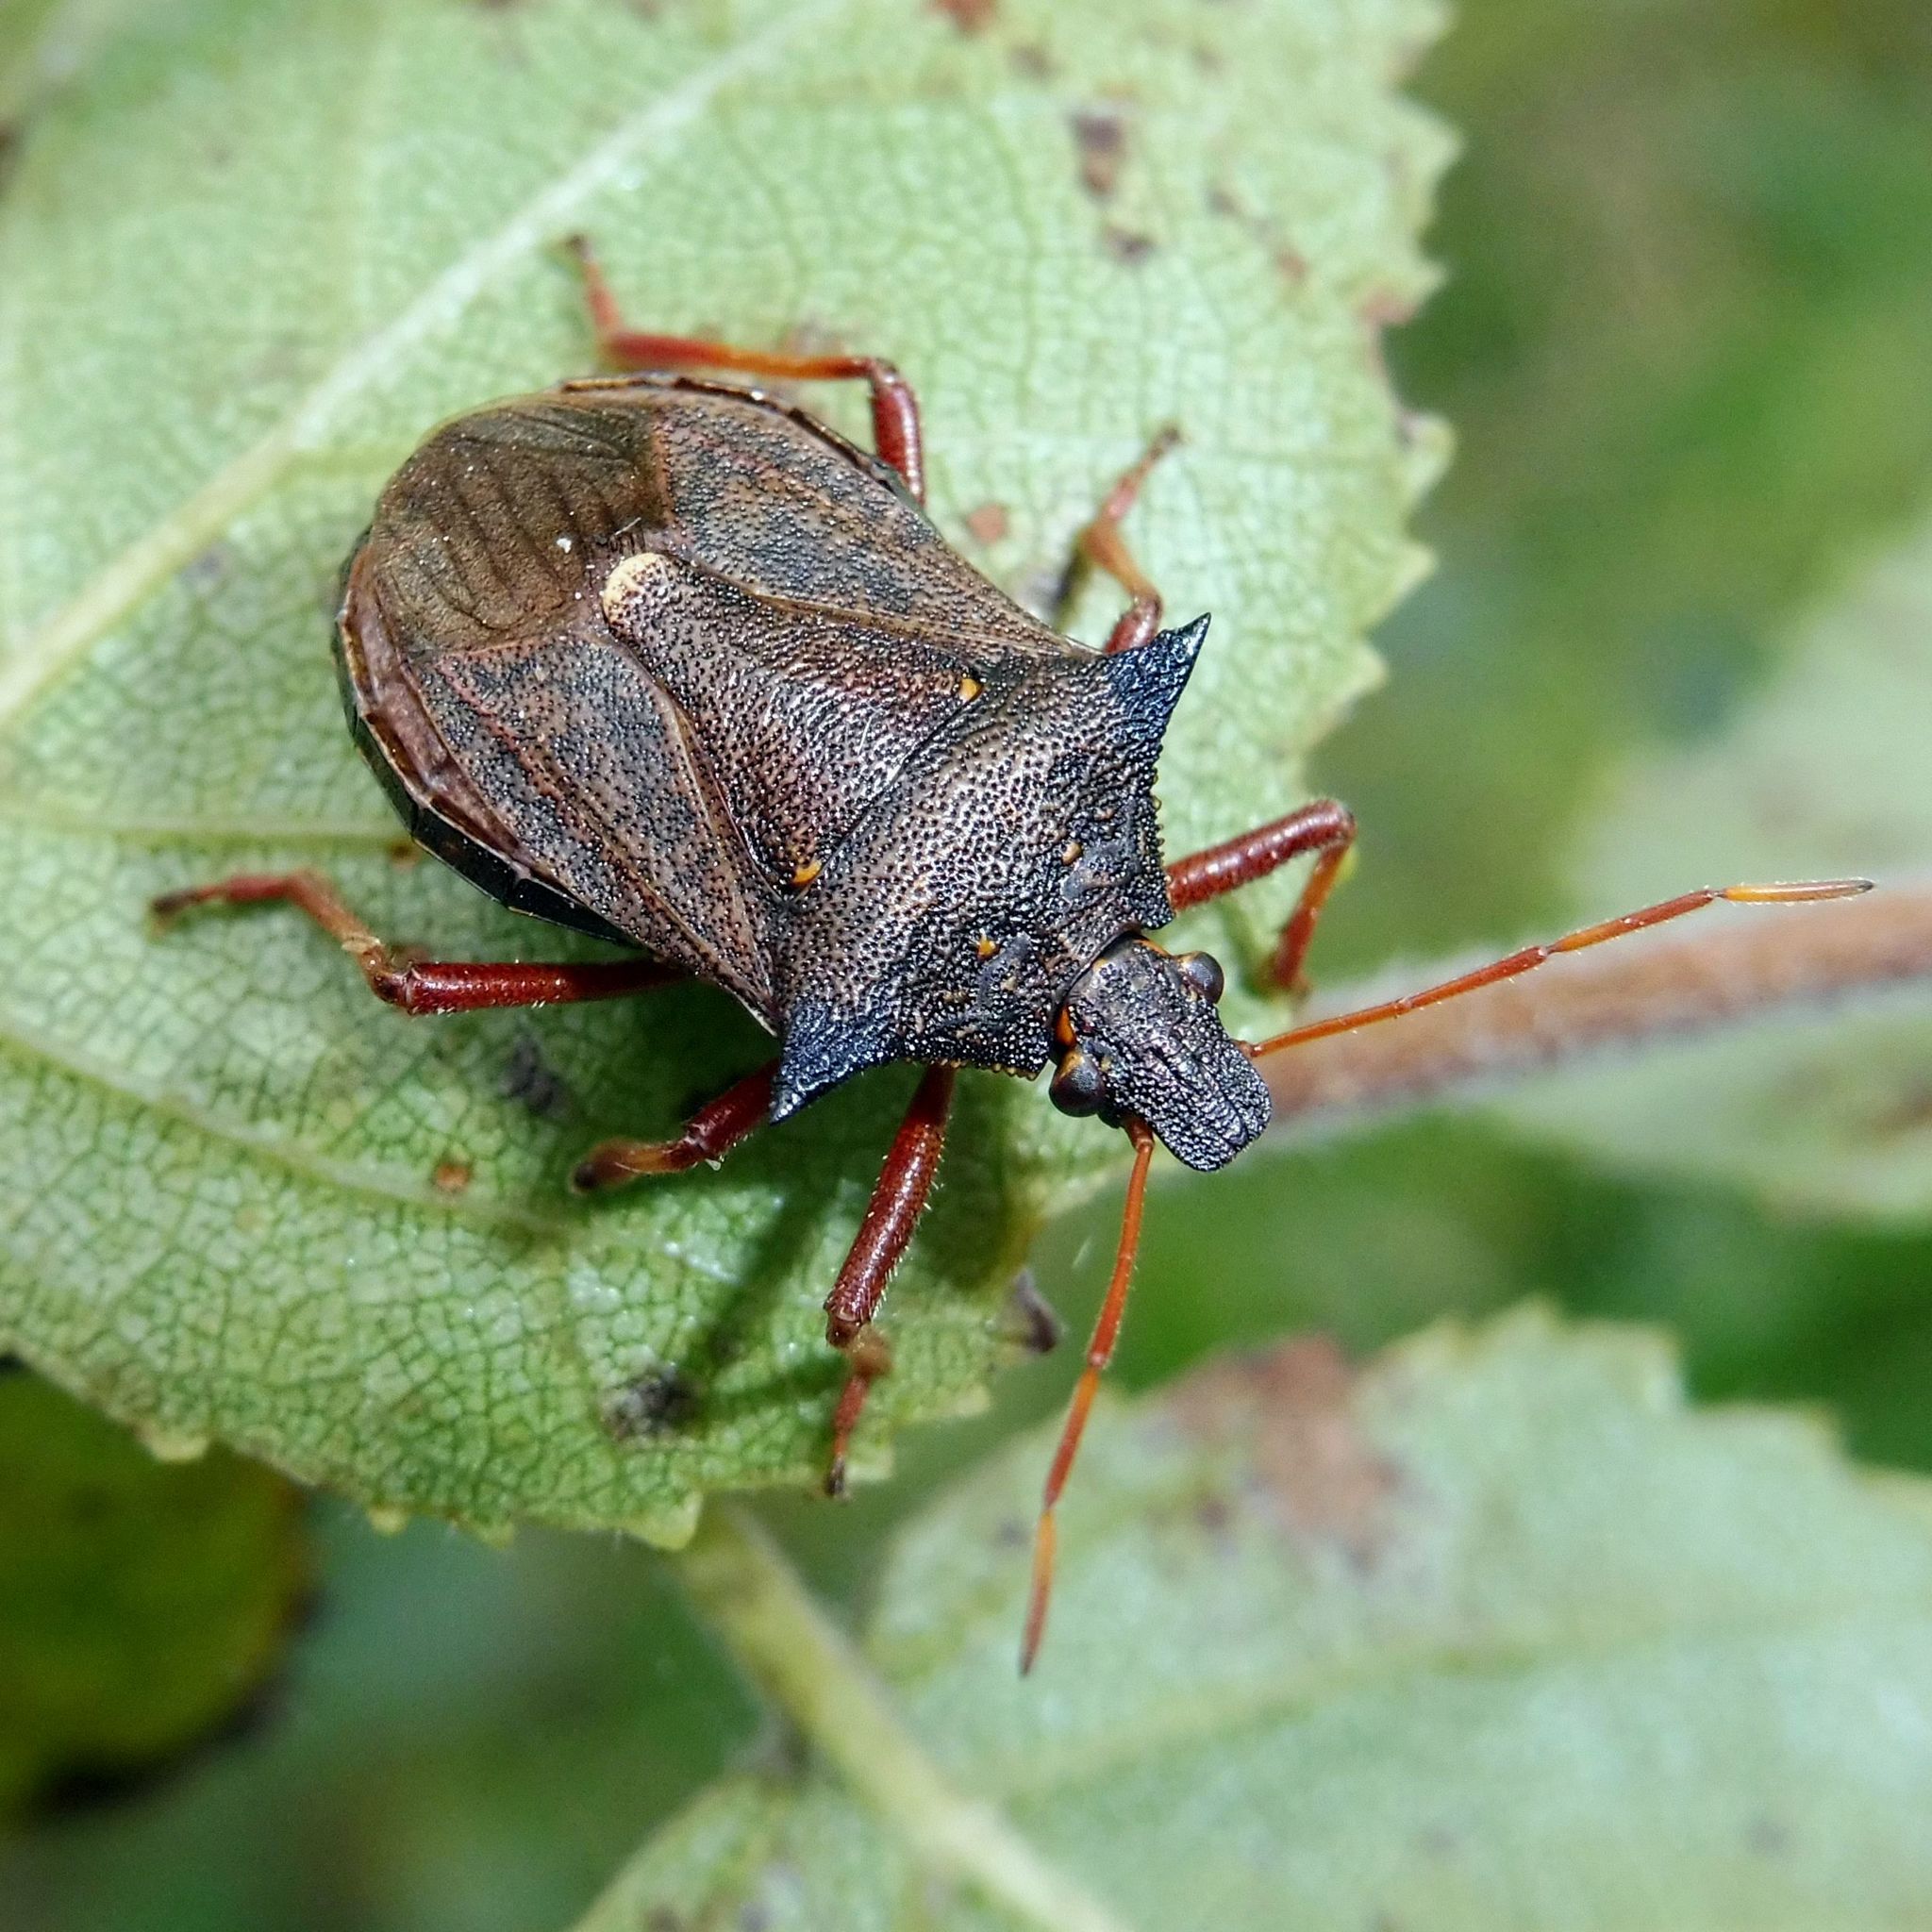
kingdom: Animalia
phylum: Arthropoda
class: Insecta
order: Hemiptera
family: Pentatomidae
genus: Picromerus
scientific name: Picromerus bidens
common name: Spiked shieldbug
